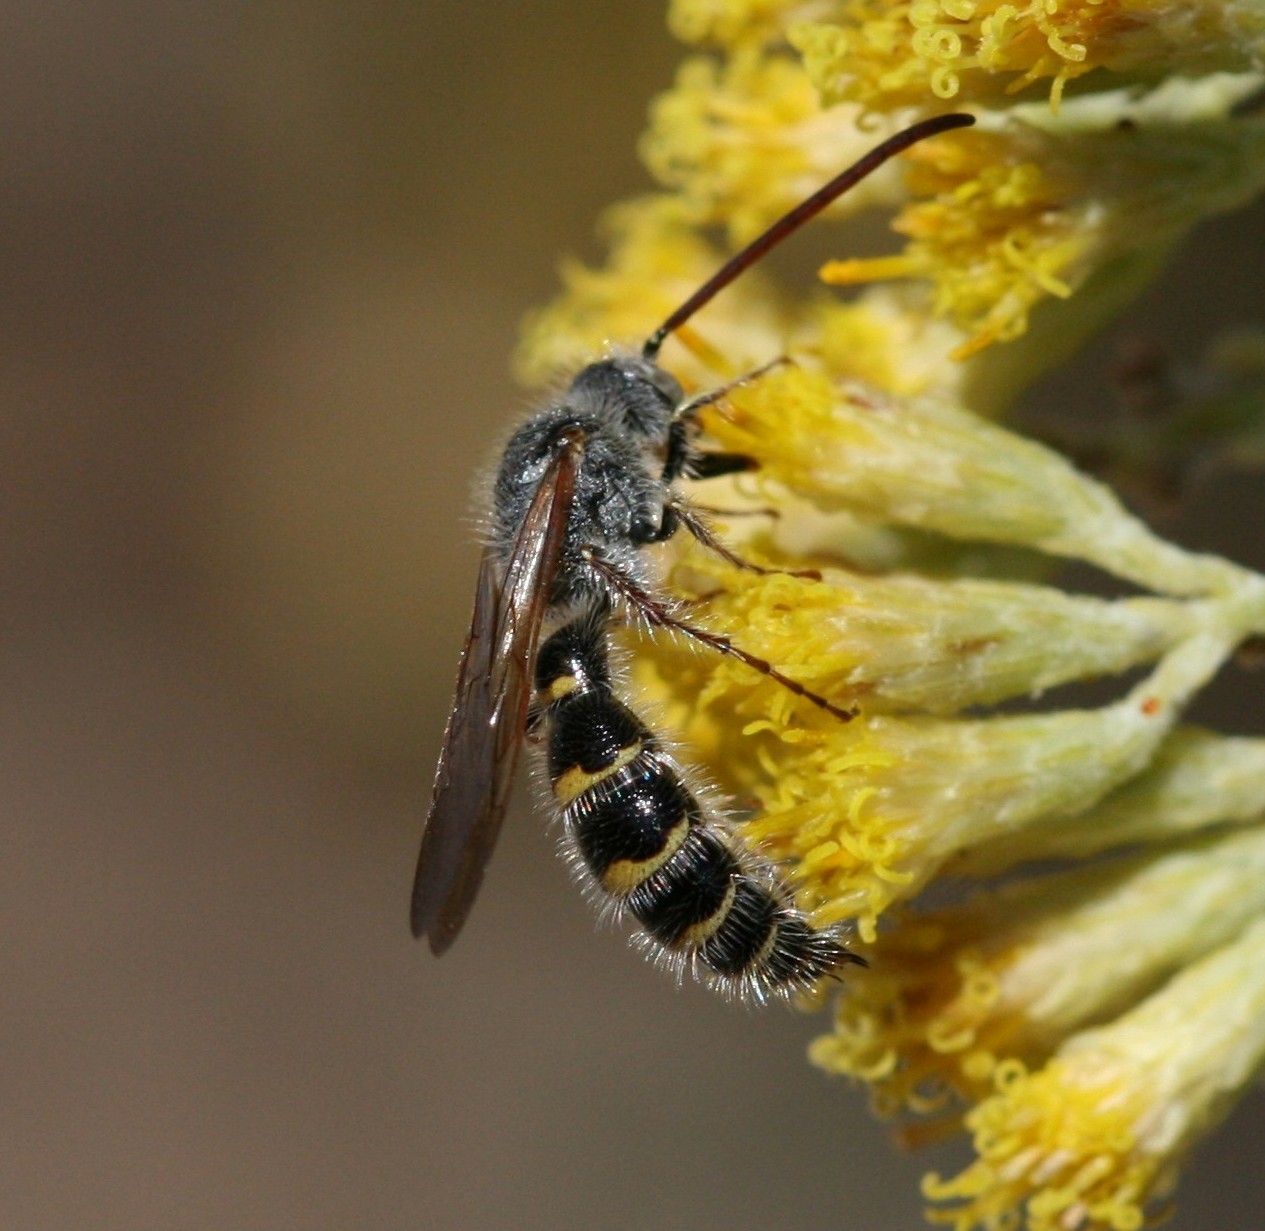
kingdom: Animalia
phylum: Arthropoda
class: Insecta
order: Hymenoptera
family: Scoliidae
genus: Micromeriella
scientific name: Micromeriella hyalina
